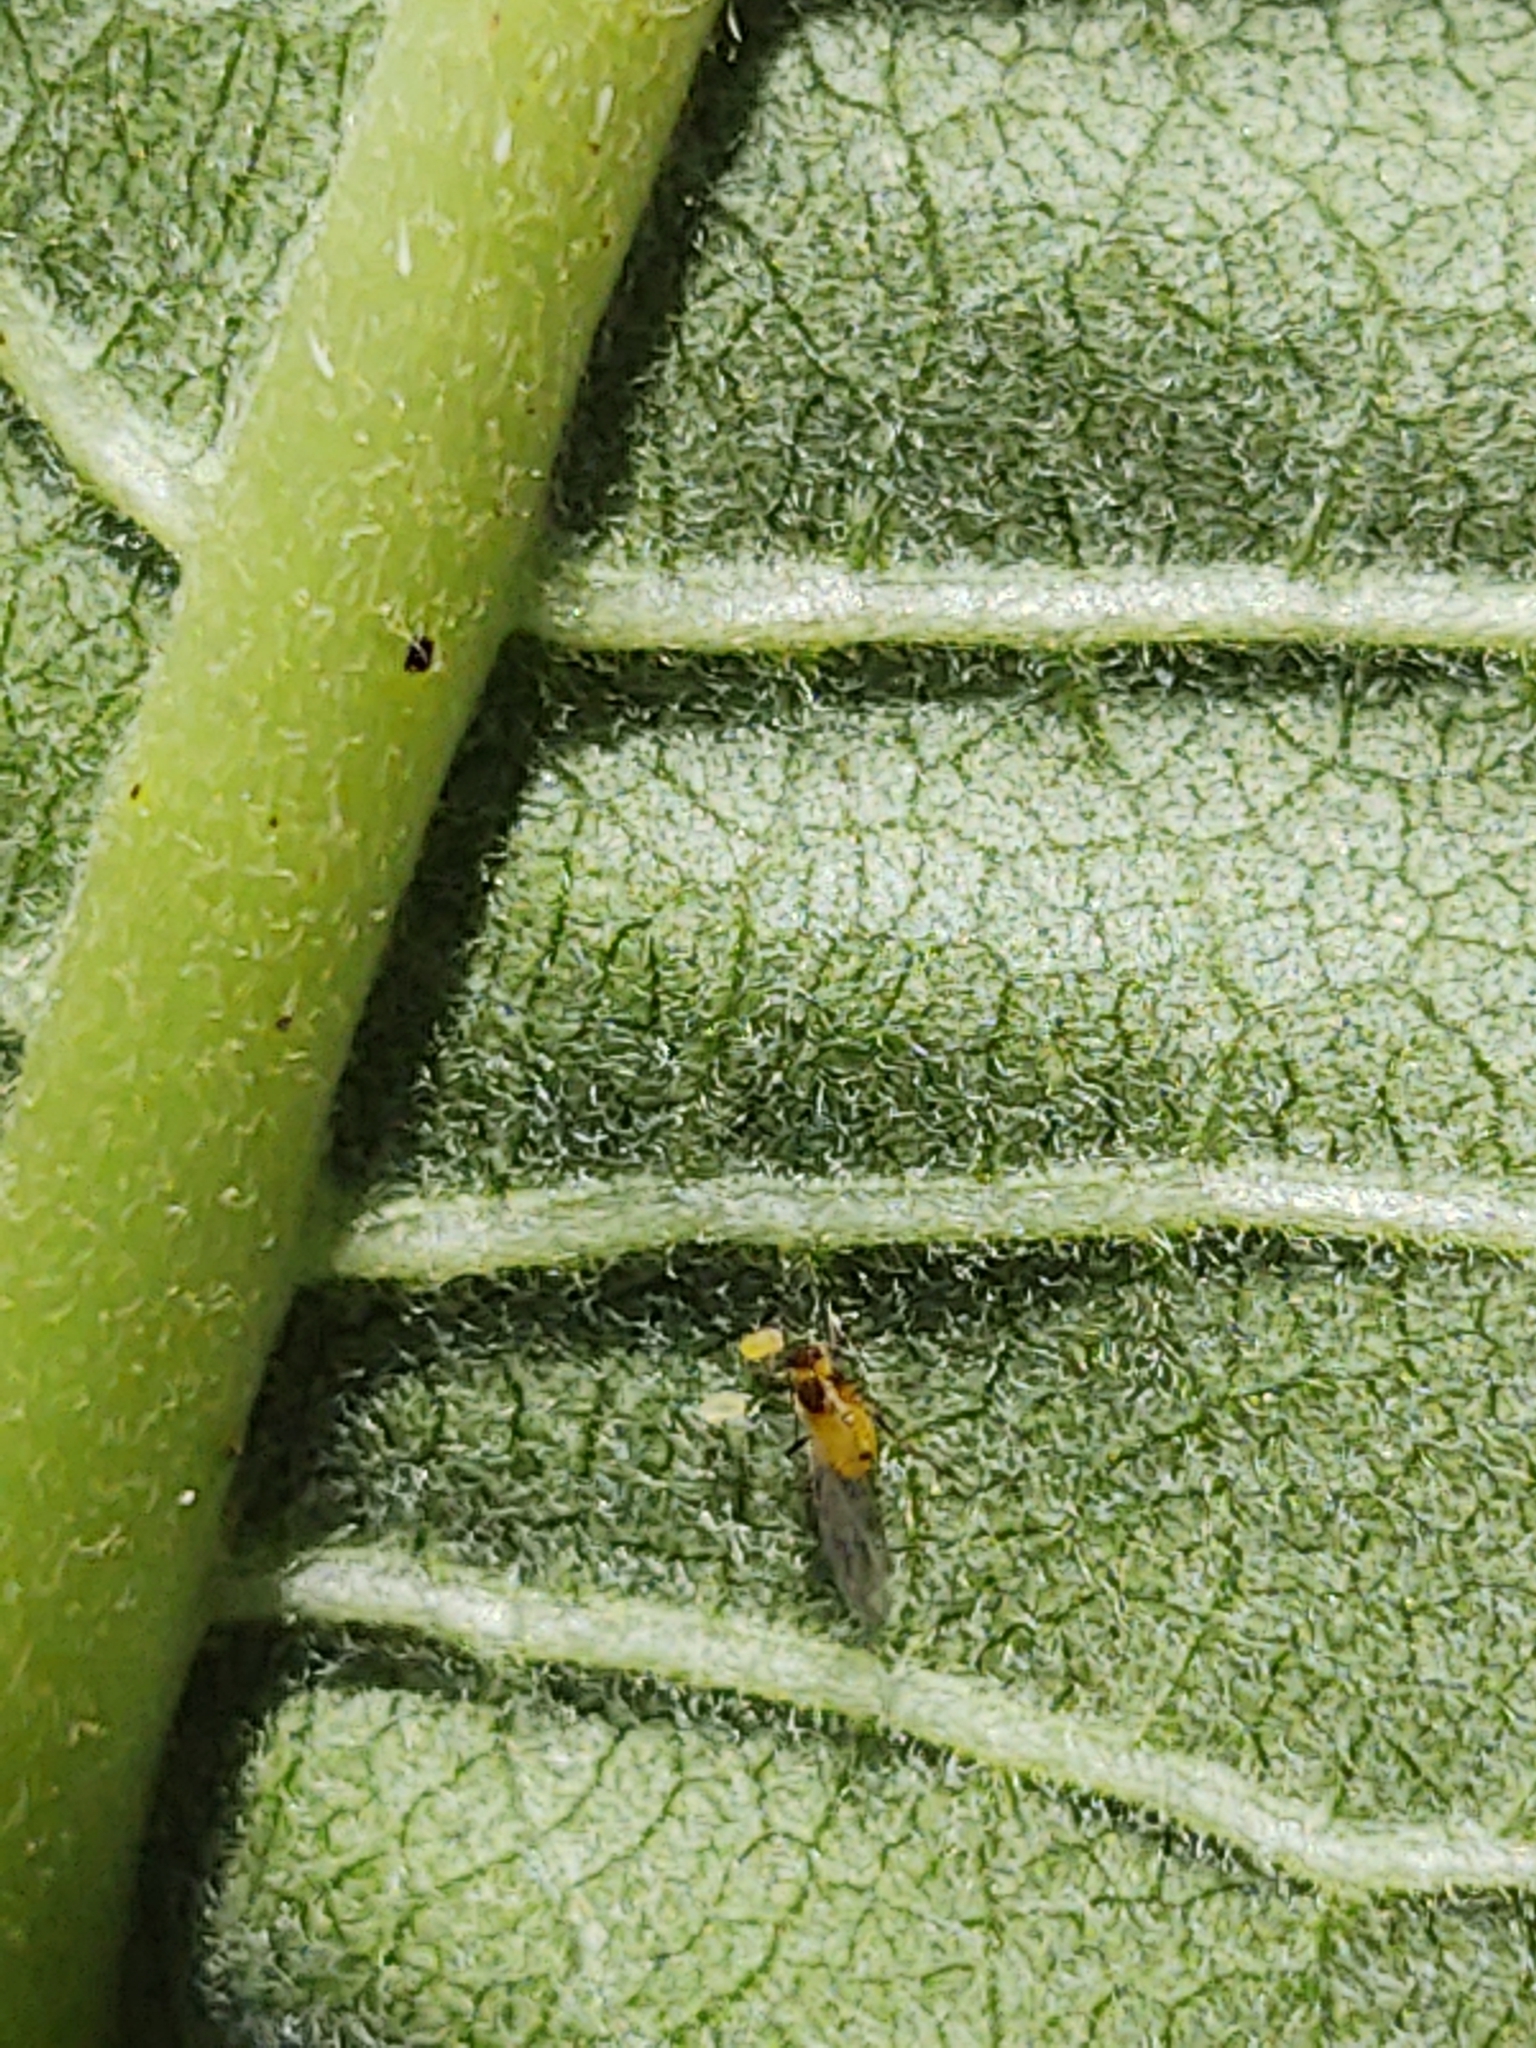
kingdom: Animalia
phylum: Arthropoda
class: Insecta
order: Hemiptera
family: Aphididae
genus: Aphis
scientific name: Aphis nerii
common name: Oleander aphid
